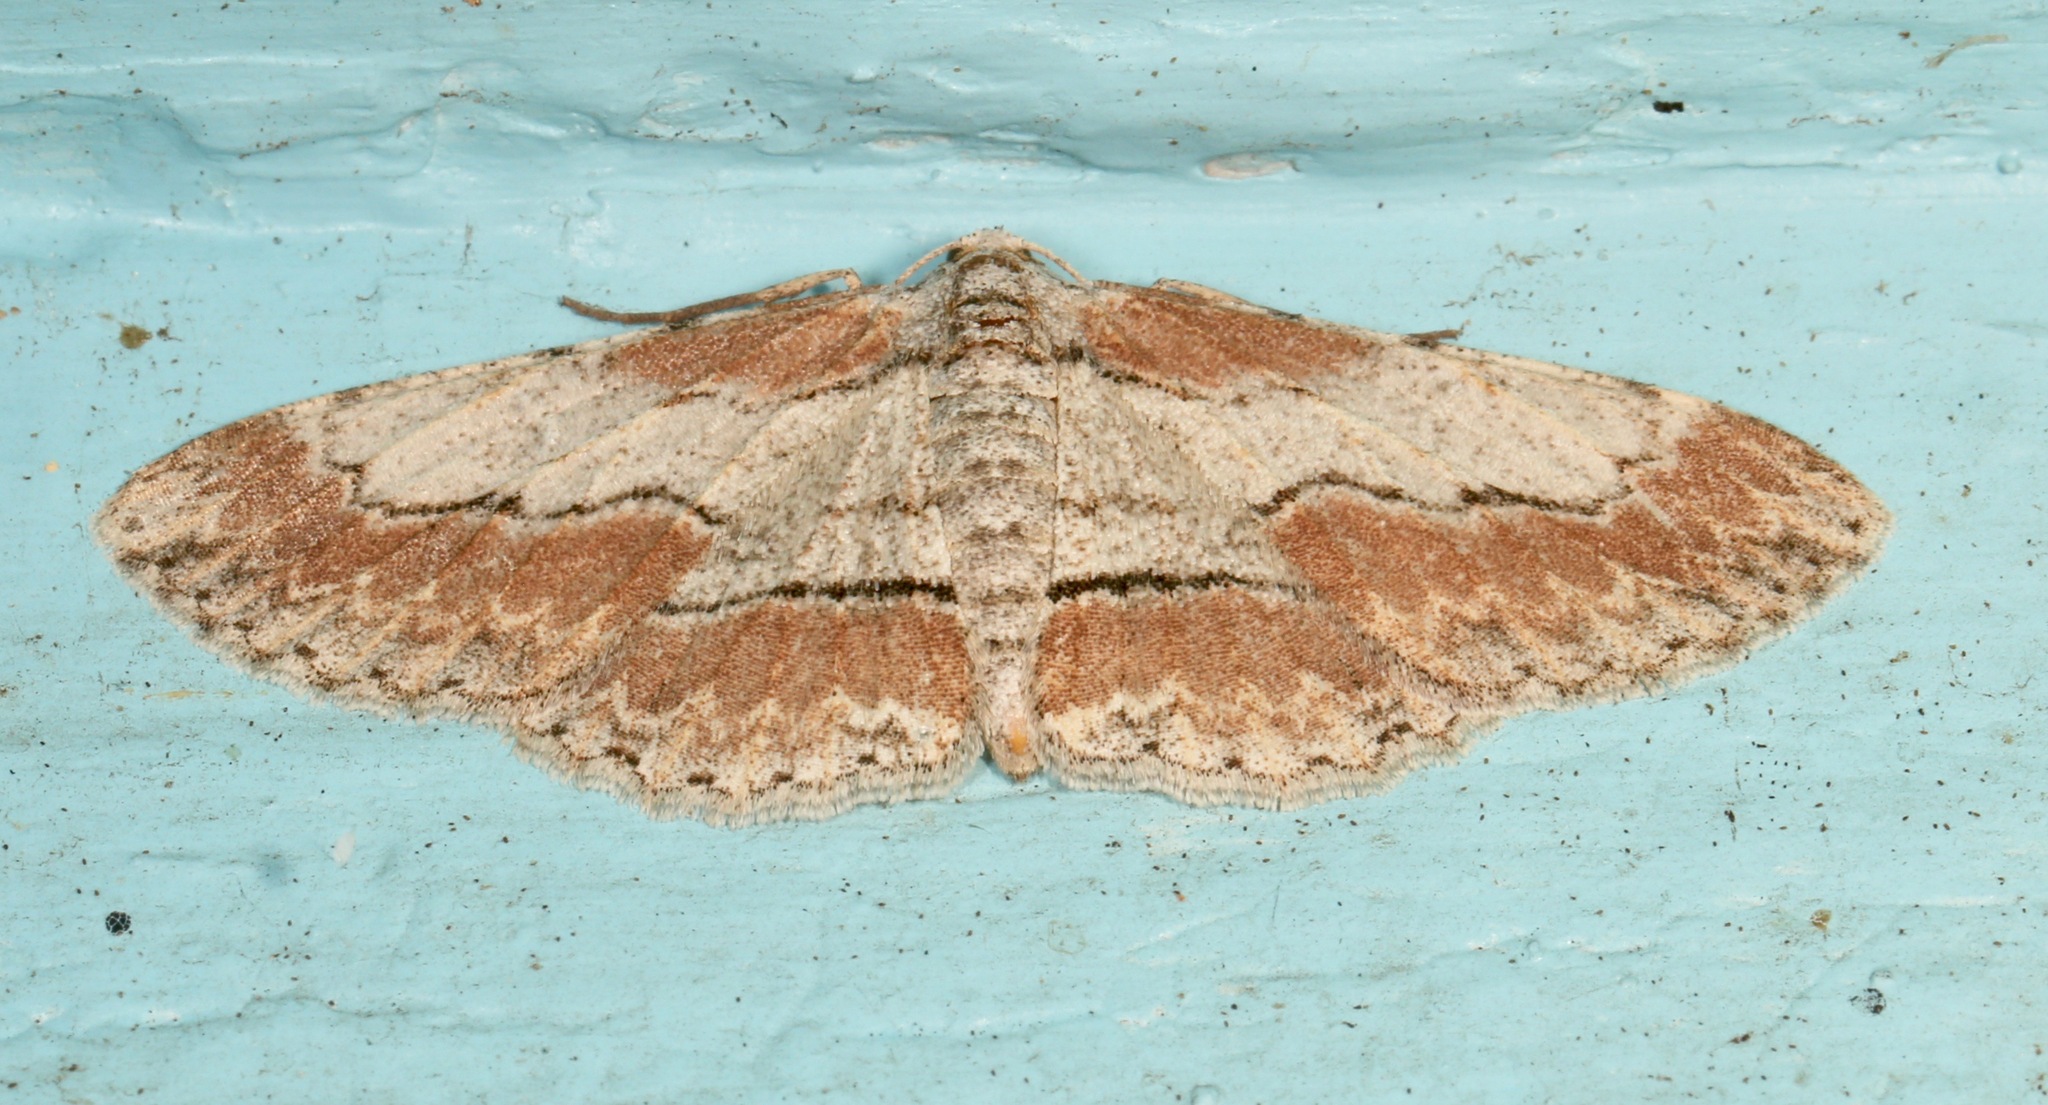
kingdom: Animalia
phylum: Arthropoda
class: Insecta
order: Lepidoptera
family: Geometridae
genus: Iridopsis
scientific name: Iridopsis pergracilis
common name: Cypress looper
